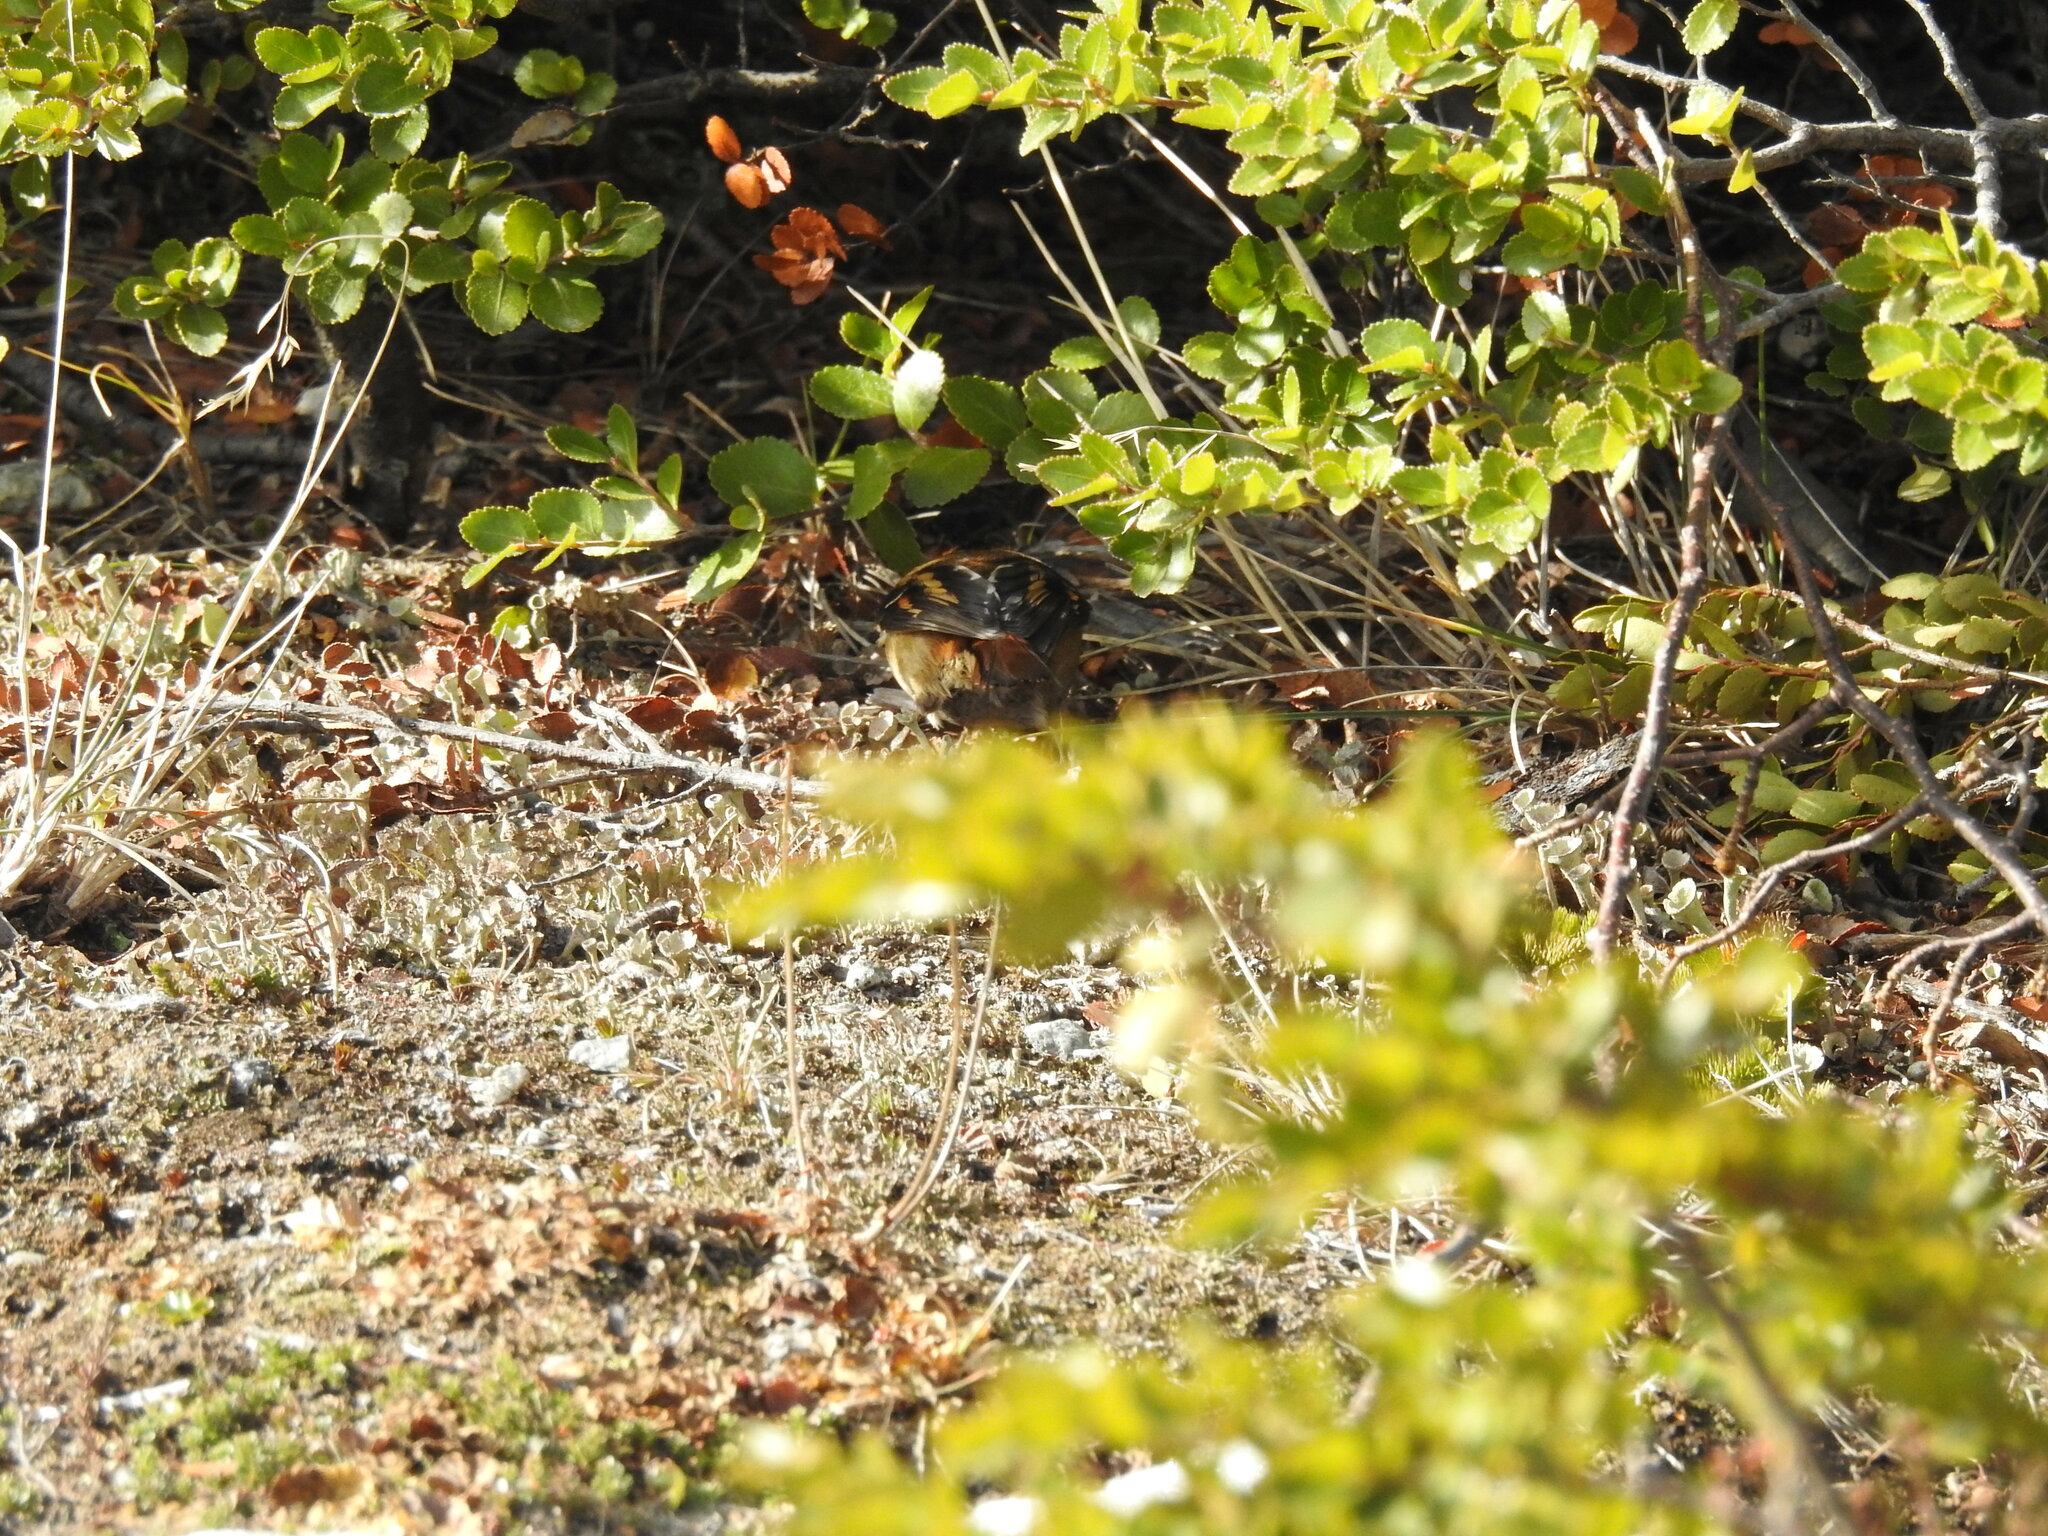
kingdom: Animalia
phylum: Chordata
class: Aves
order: Passeriformes
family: Furnariidae
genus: Aphrastura
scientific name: Aphrastura spinicauda
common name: Thorn-tailed rayadito
